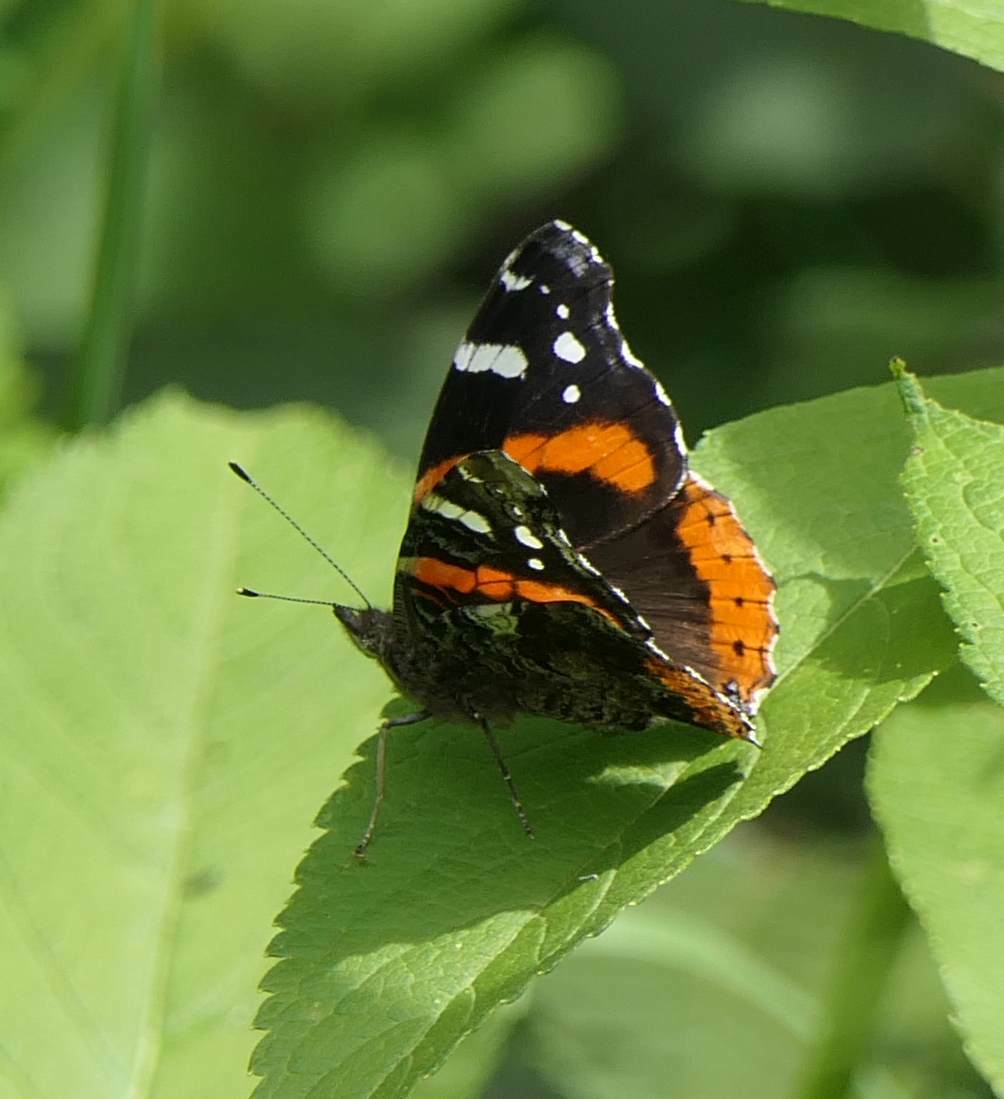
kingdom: Animalia
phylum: Arthropoda
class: Insecta
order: Lepidoptera
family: Nymphalidae
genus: Vanessa
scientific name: Vanessa atalanta
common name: Red admiral
